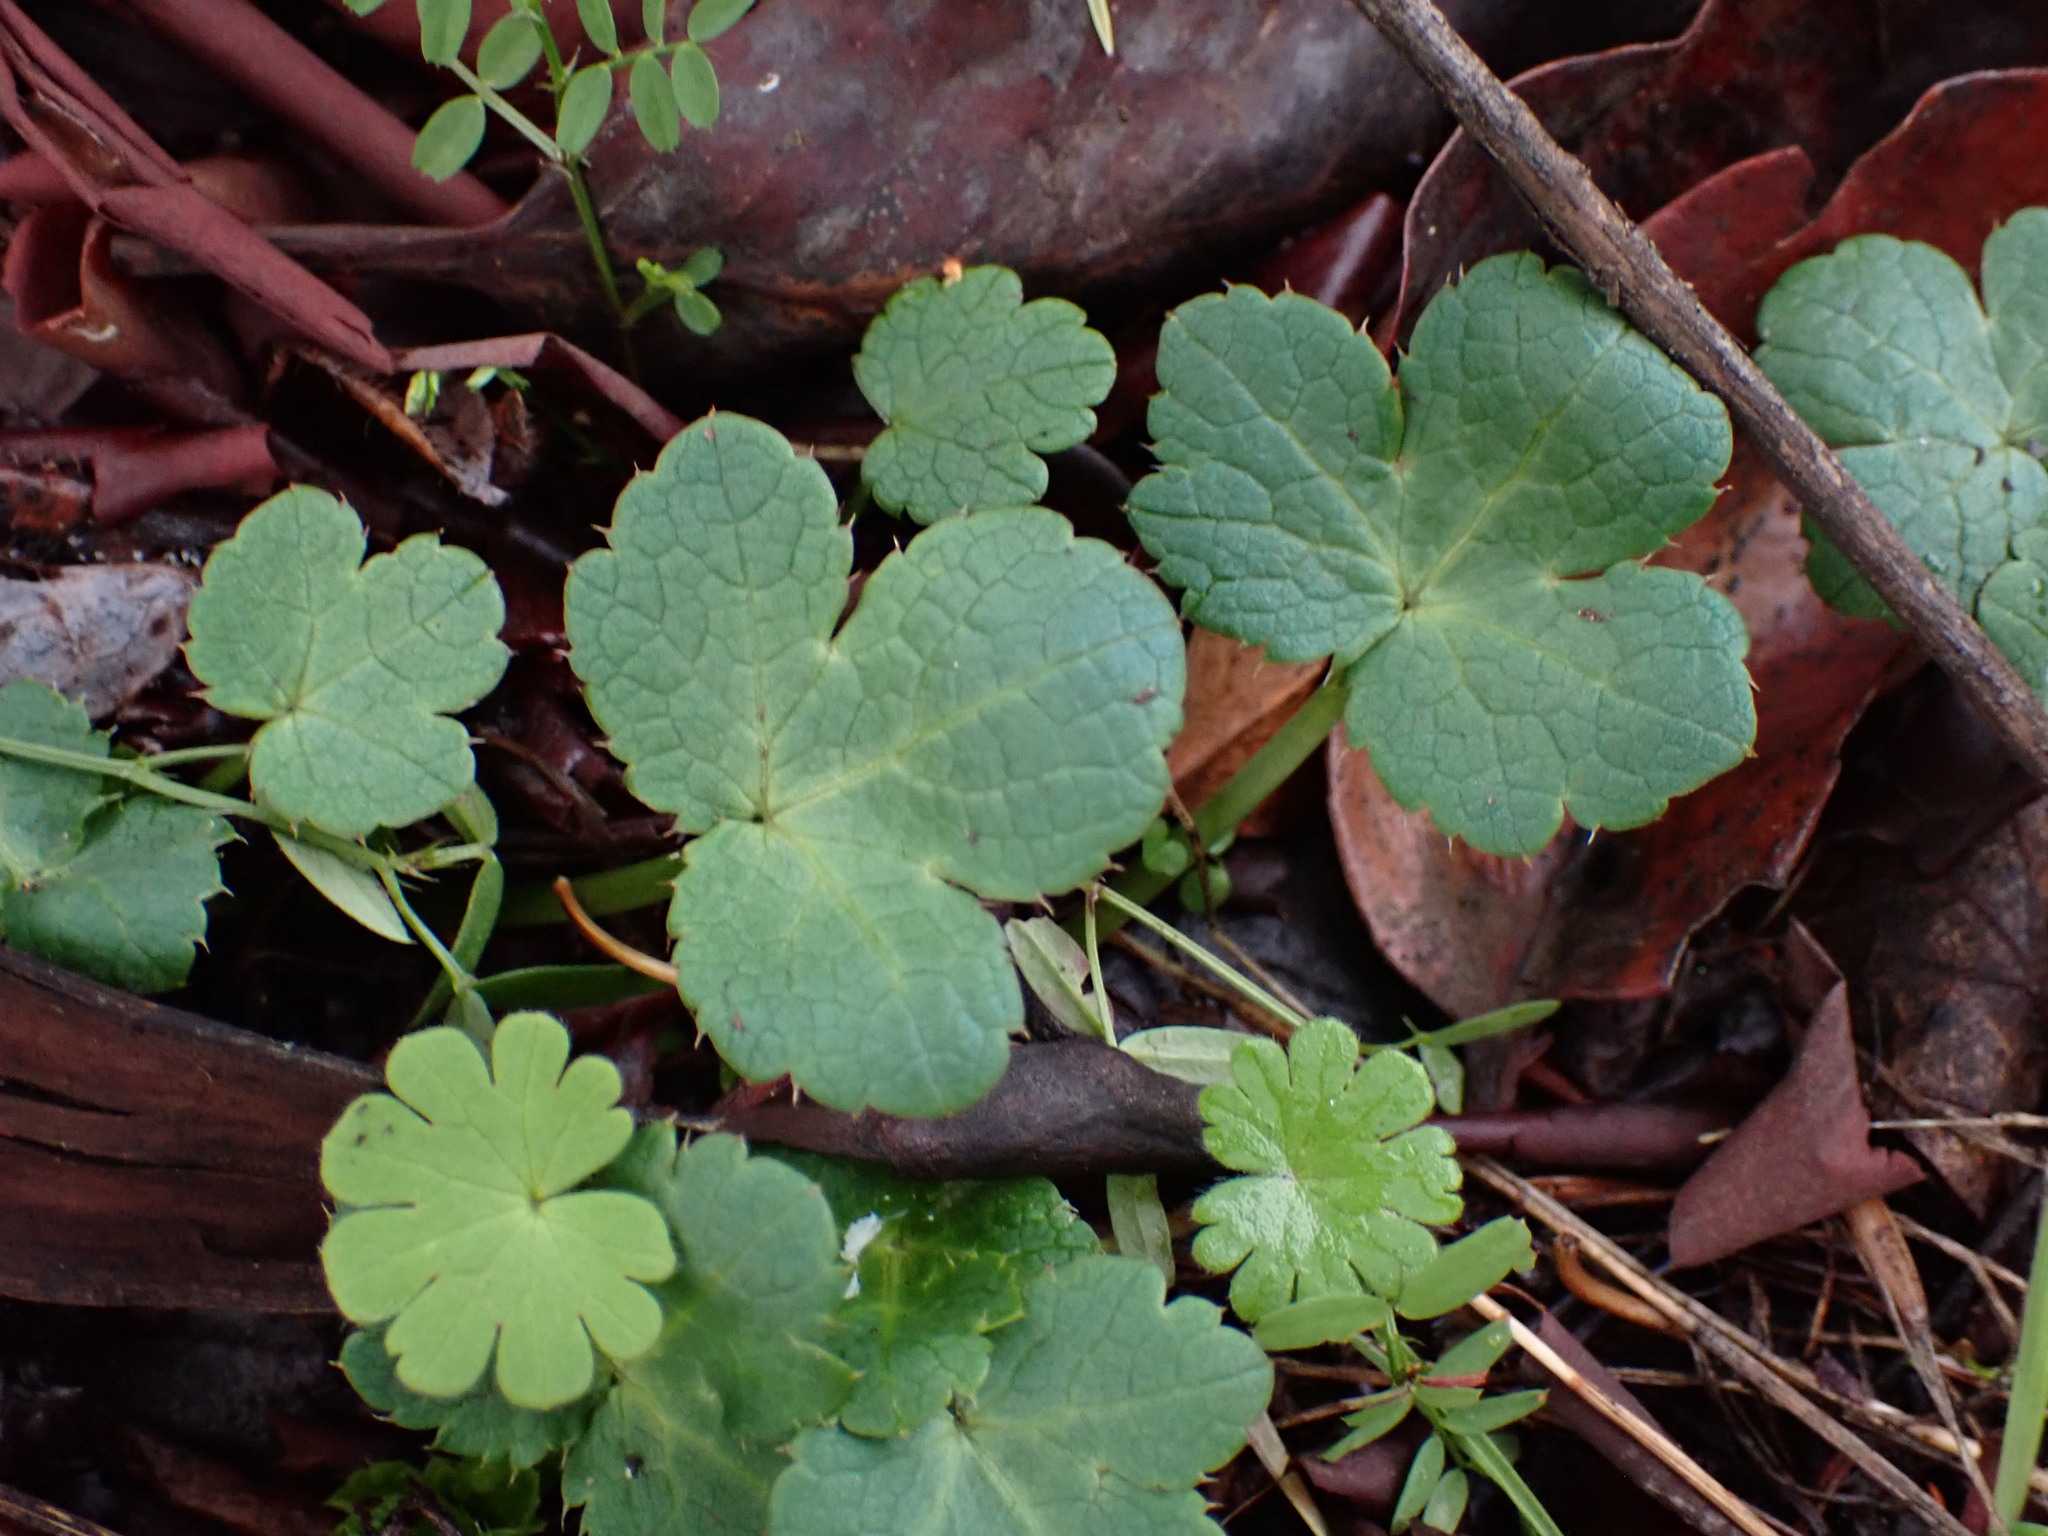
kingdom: Plantae
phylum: Tracheophyta
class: Magnoliopsida
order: Apiales
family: Apiaceae
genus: Sanicula
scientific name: Sanicula crassicaulis
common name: Western snakeroot
